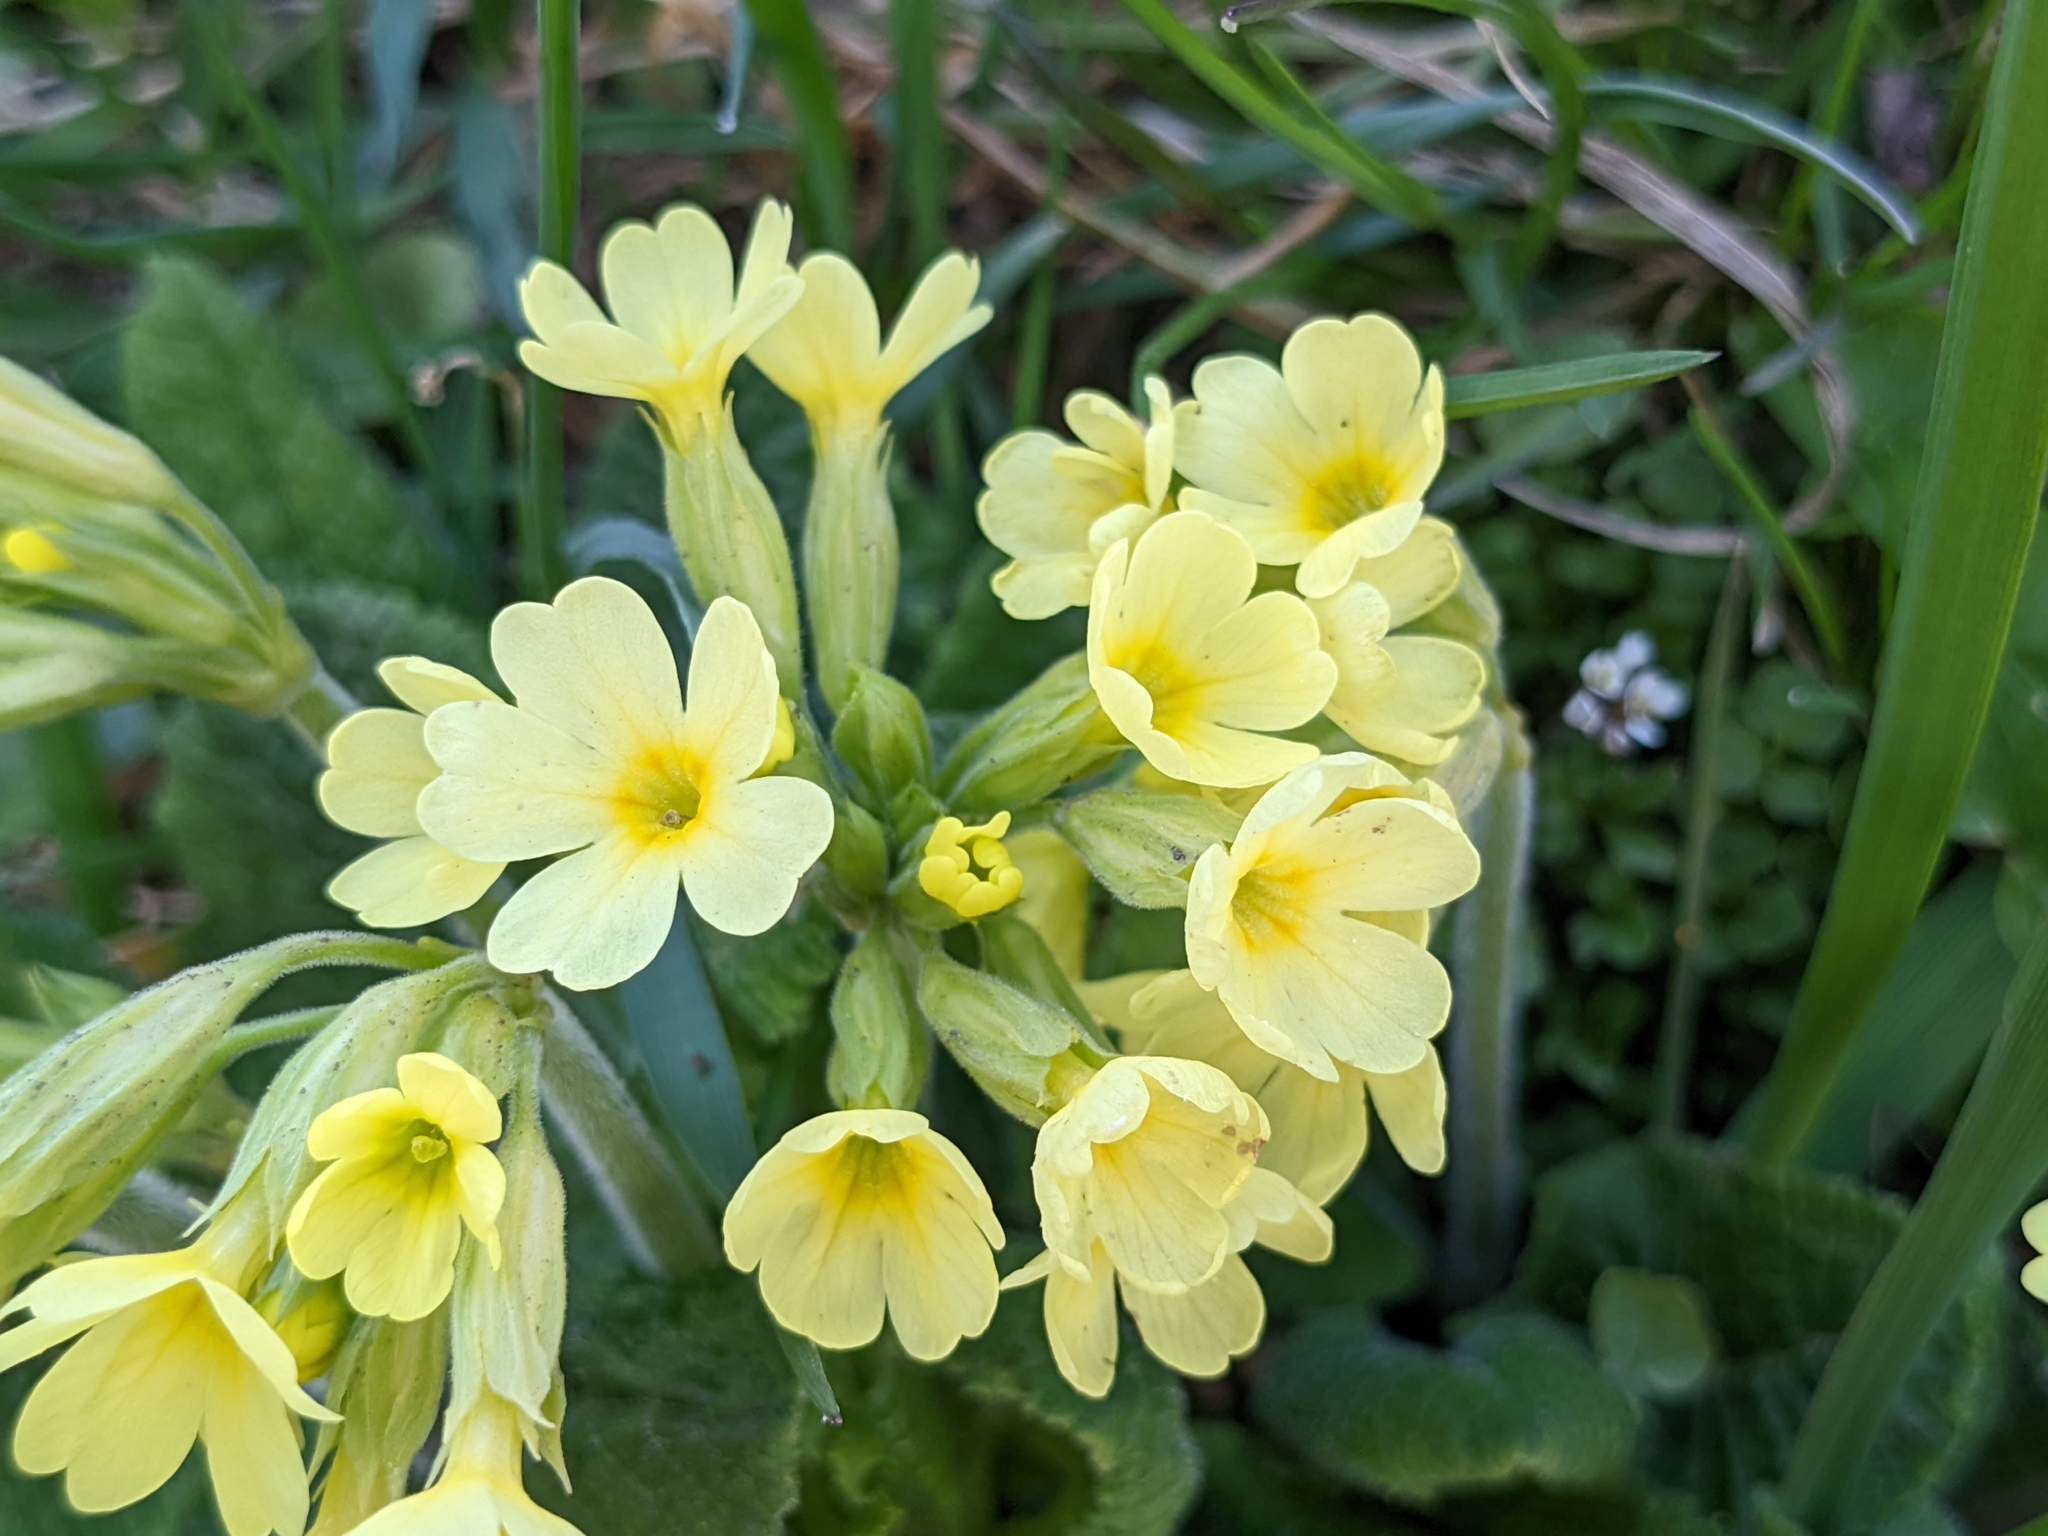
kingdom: Plantae
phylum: Tracheophyta
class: Magnoliopsida
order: Ericales
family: Primulaceae
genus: Primula
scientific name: Primula elatior
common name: Oxlip
